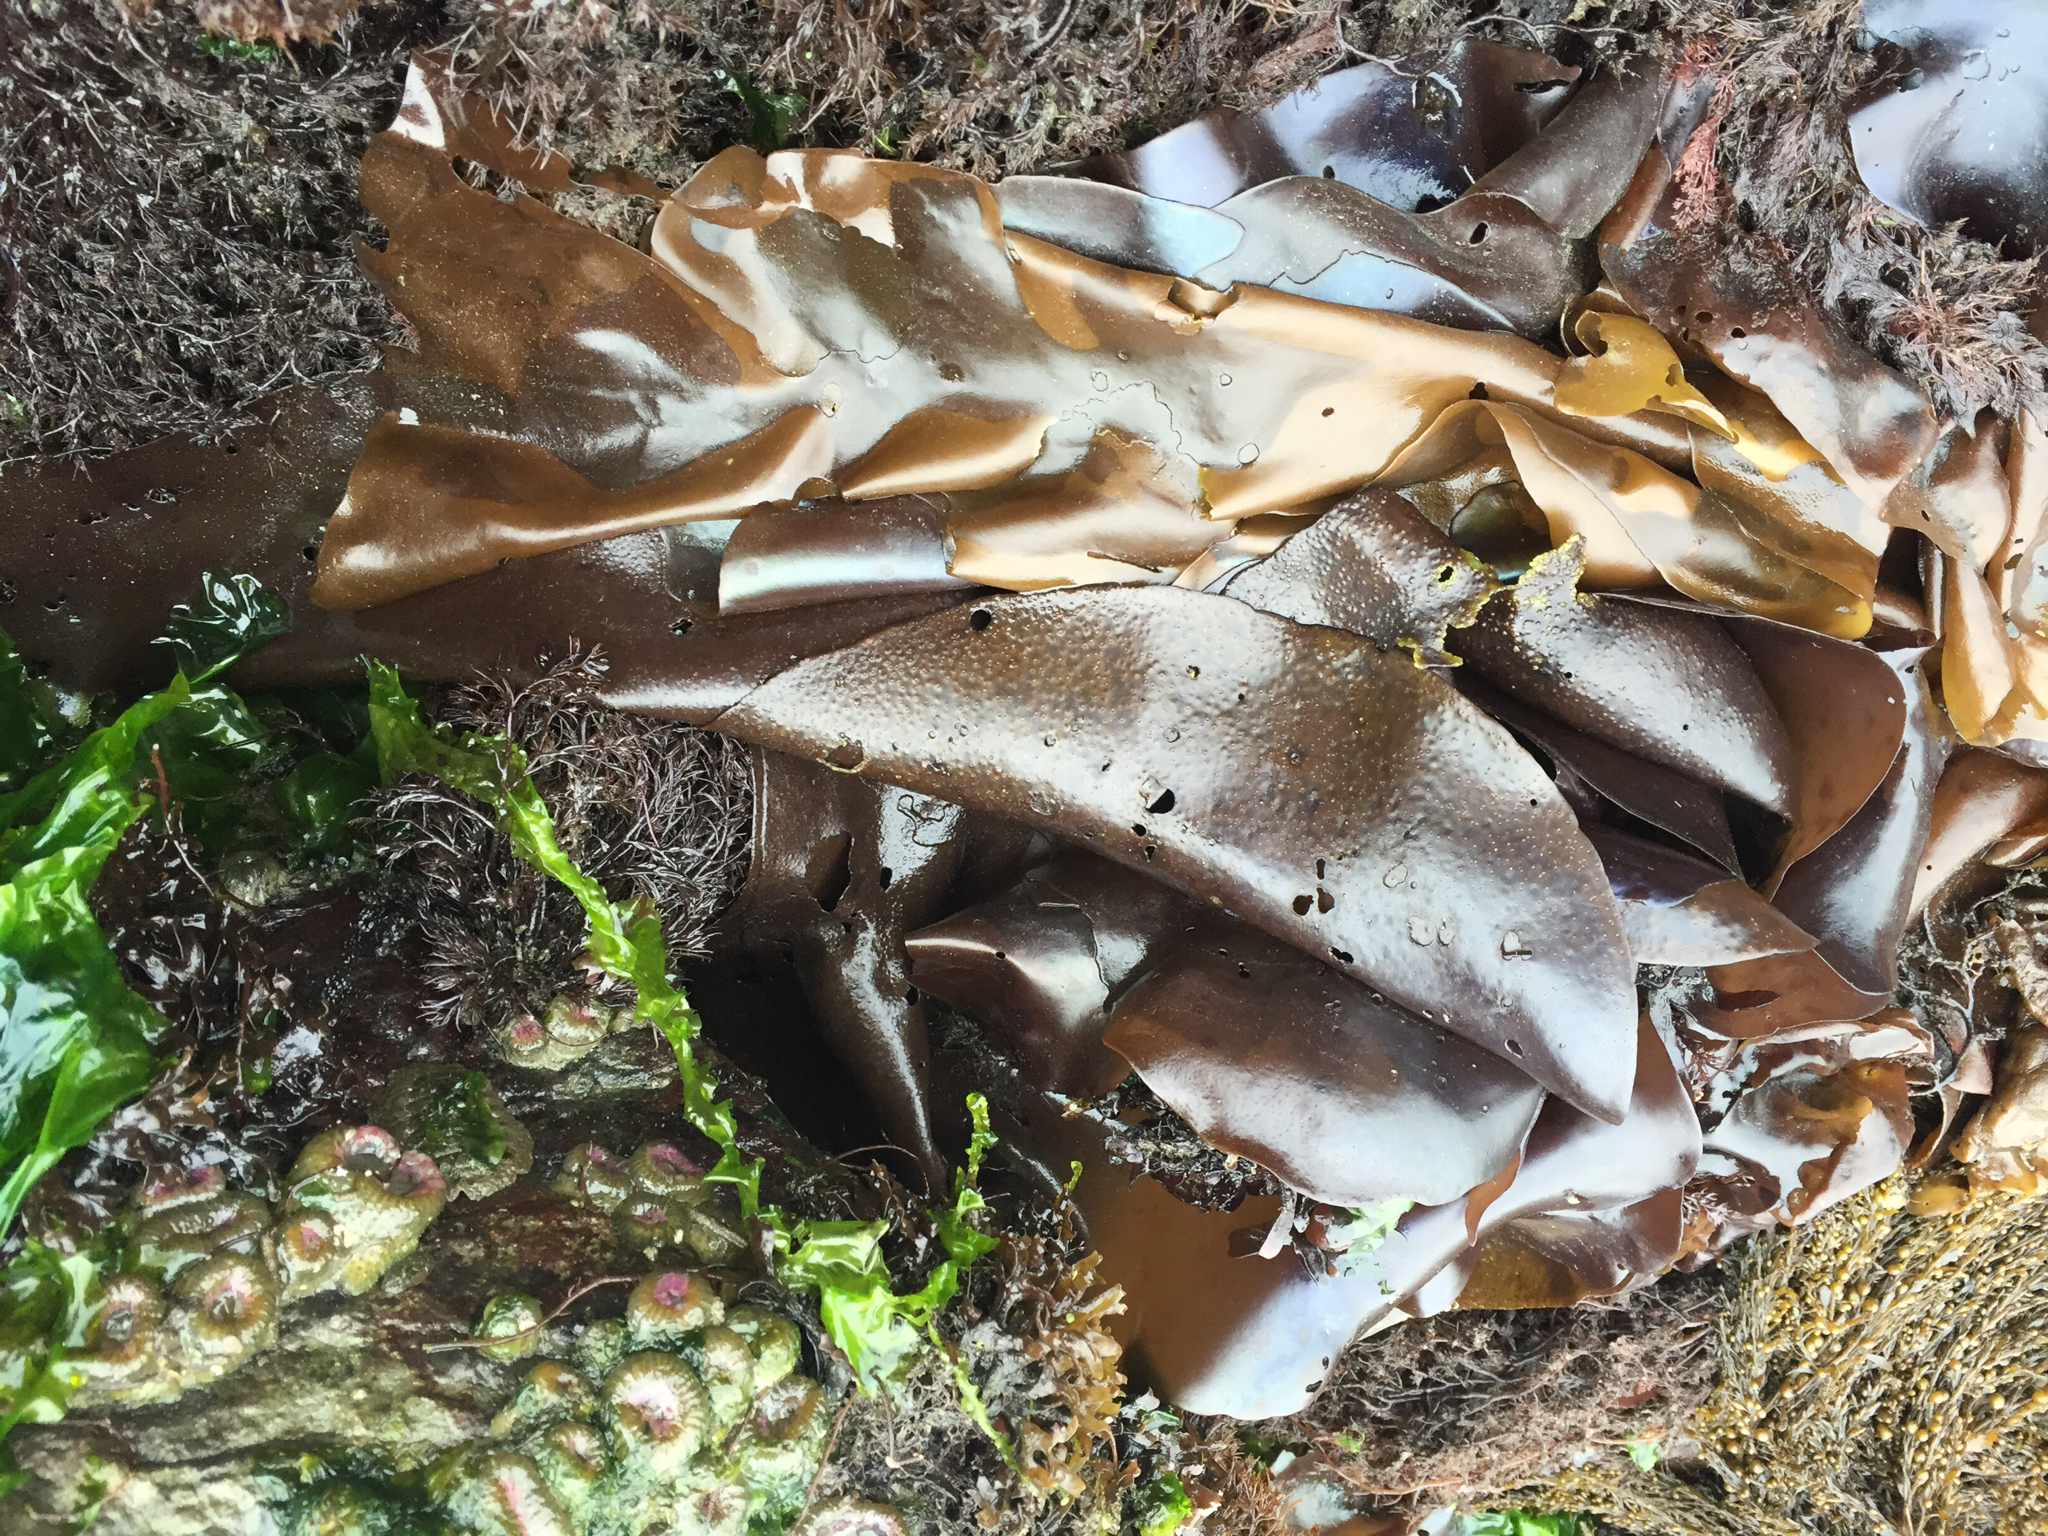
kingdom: Plantae
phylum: Rhodophyta
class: Florideophyceae
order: Gigartinales
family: Gigartinaceae
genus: Mazzaella
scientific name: Mazzaella splendens
